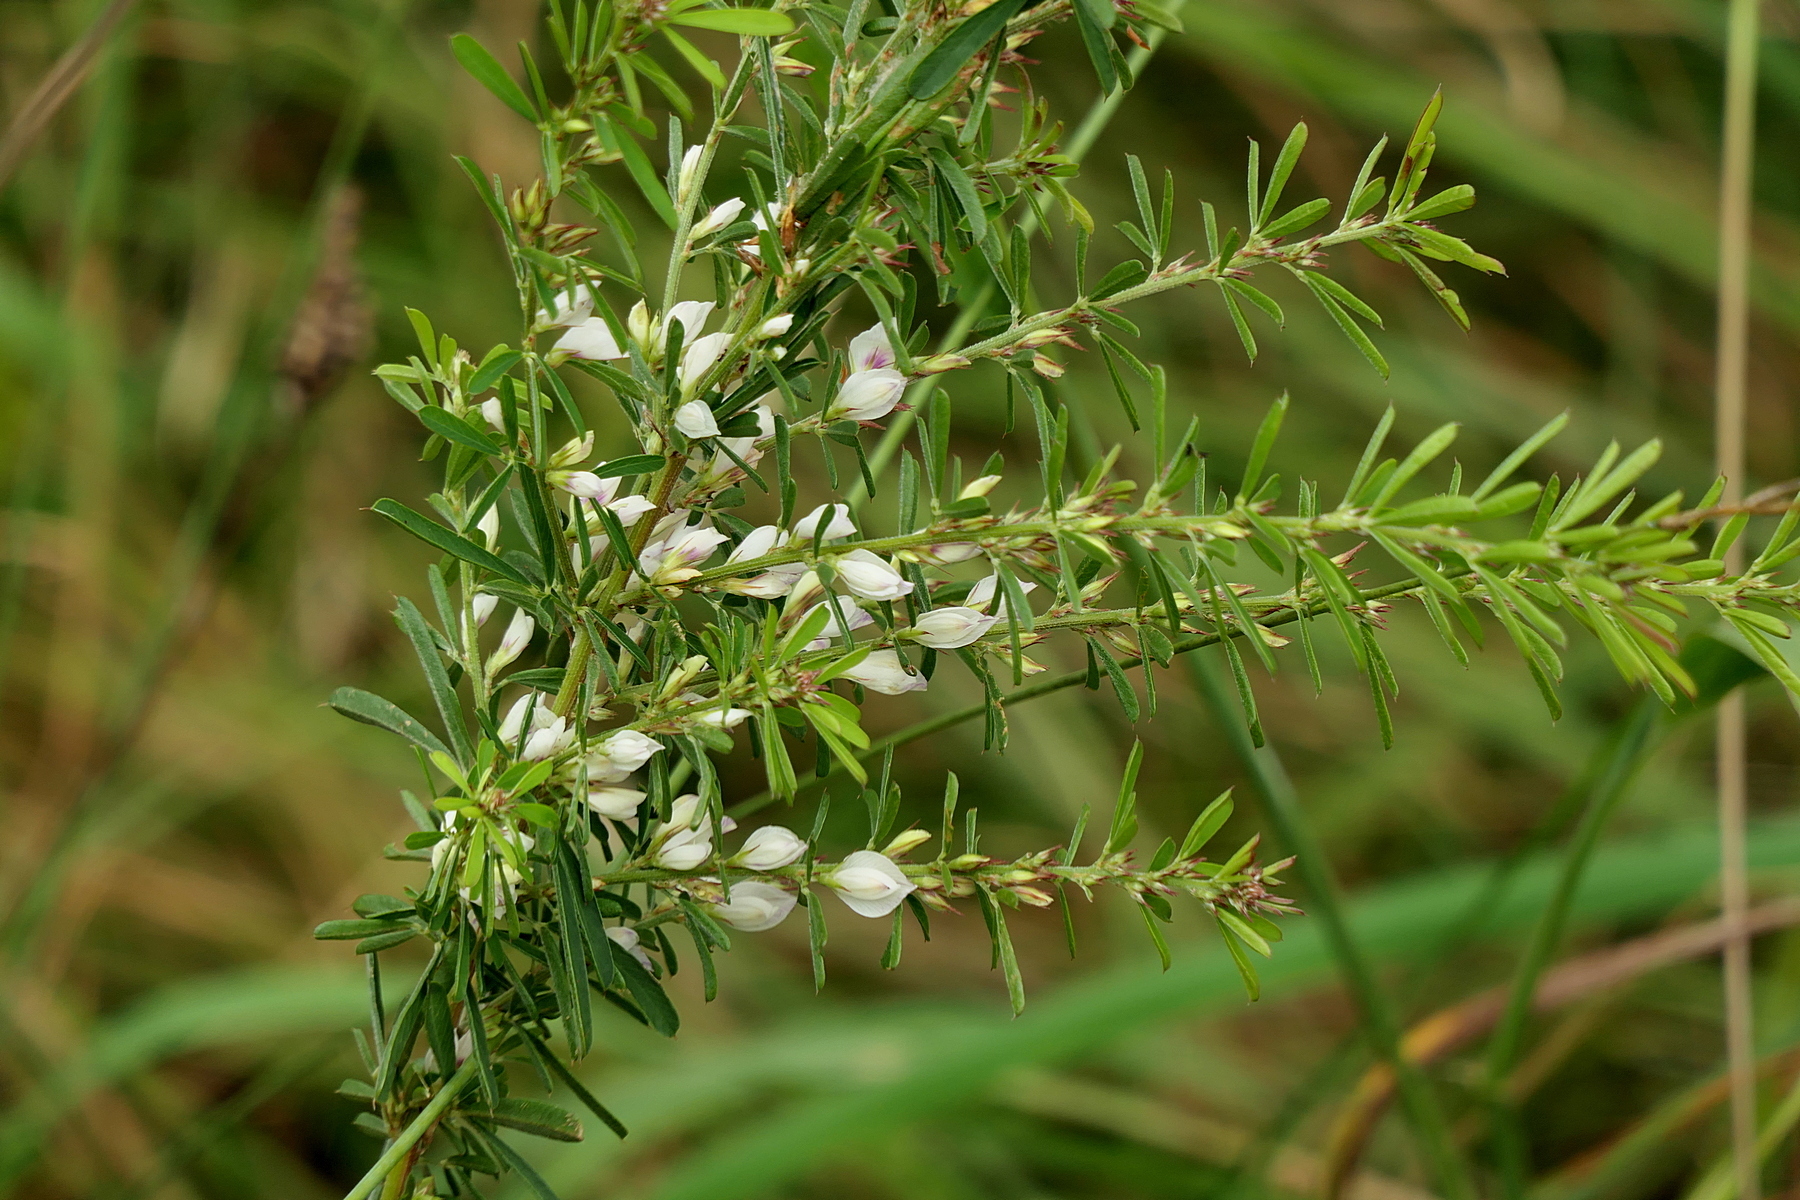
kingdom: Plantae
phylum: Tracheophyta
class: Magnoliopsida
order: Fabales
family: Fabaceae
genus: Lespedeza
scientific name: Lespedeza juncea
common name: Siberian lespedeza
